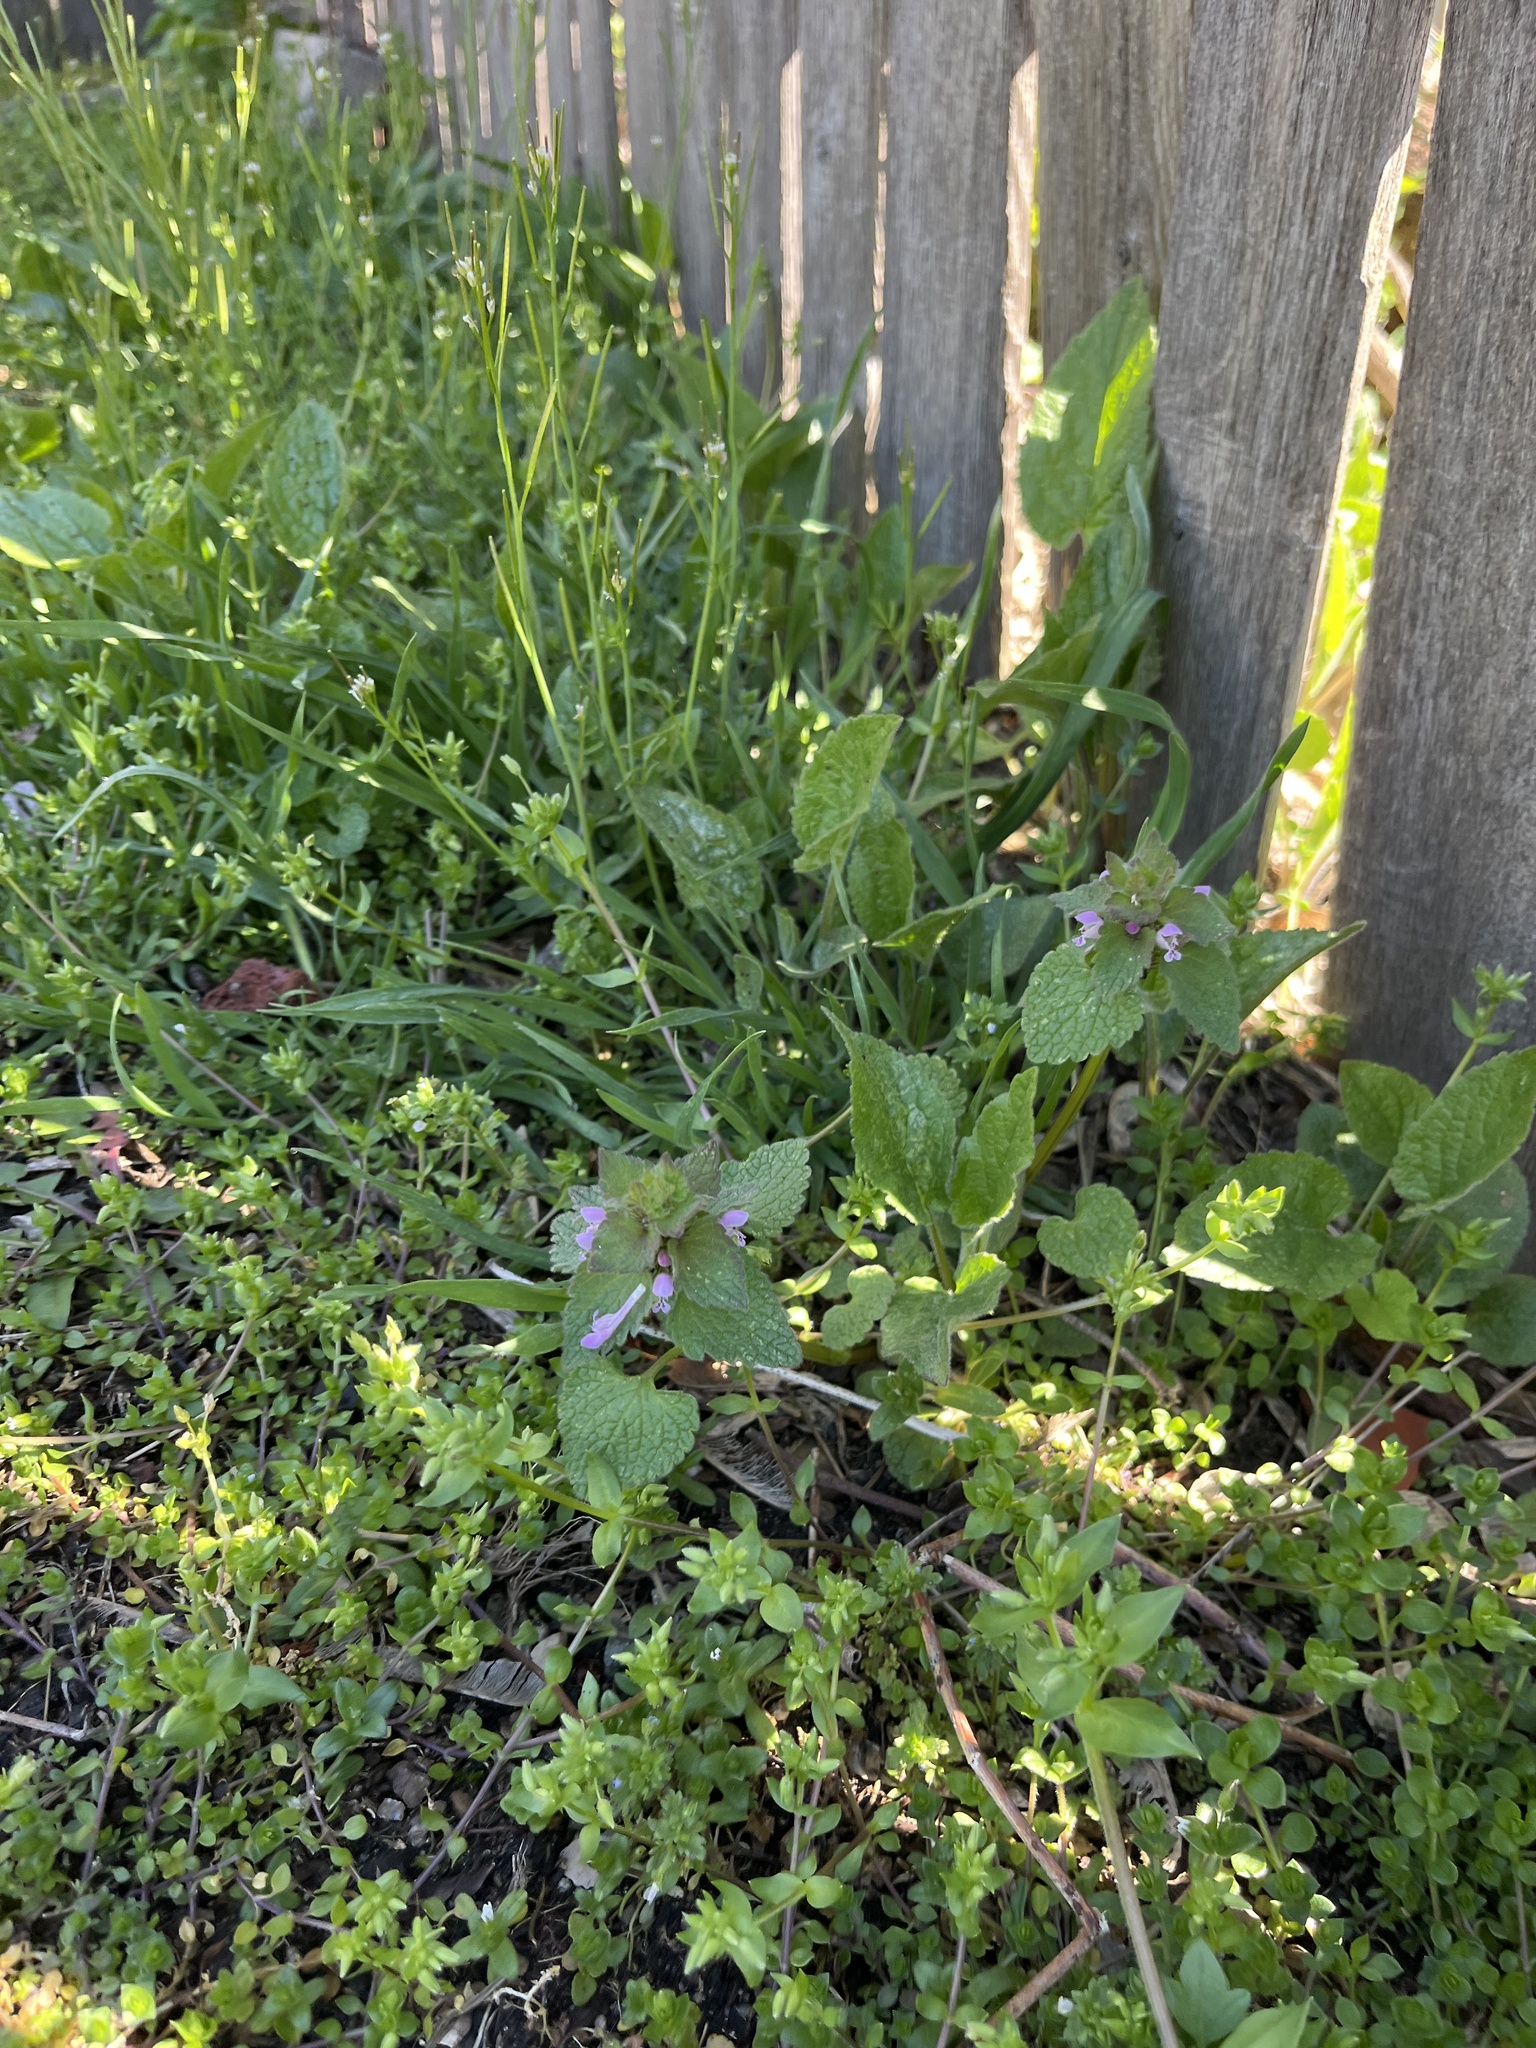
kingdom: Plantae
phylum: Tracheophyta
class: Magnoliopsida
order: Lamiales
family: Lamiaceae
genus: Lamium
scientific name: Lamium purpureum
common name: Red dead-nettle
